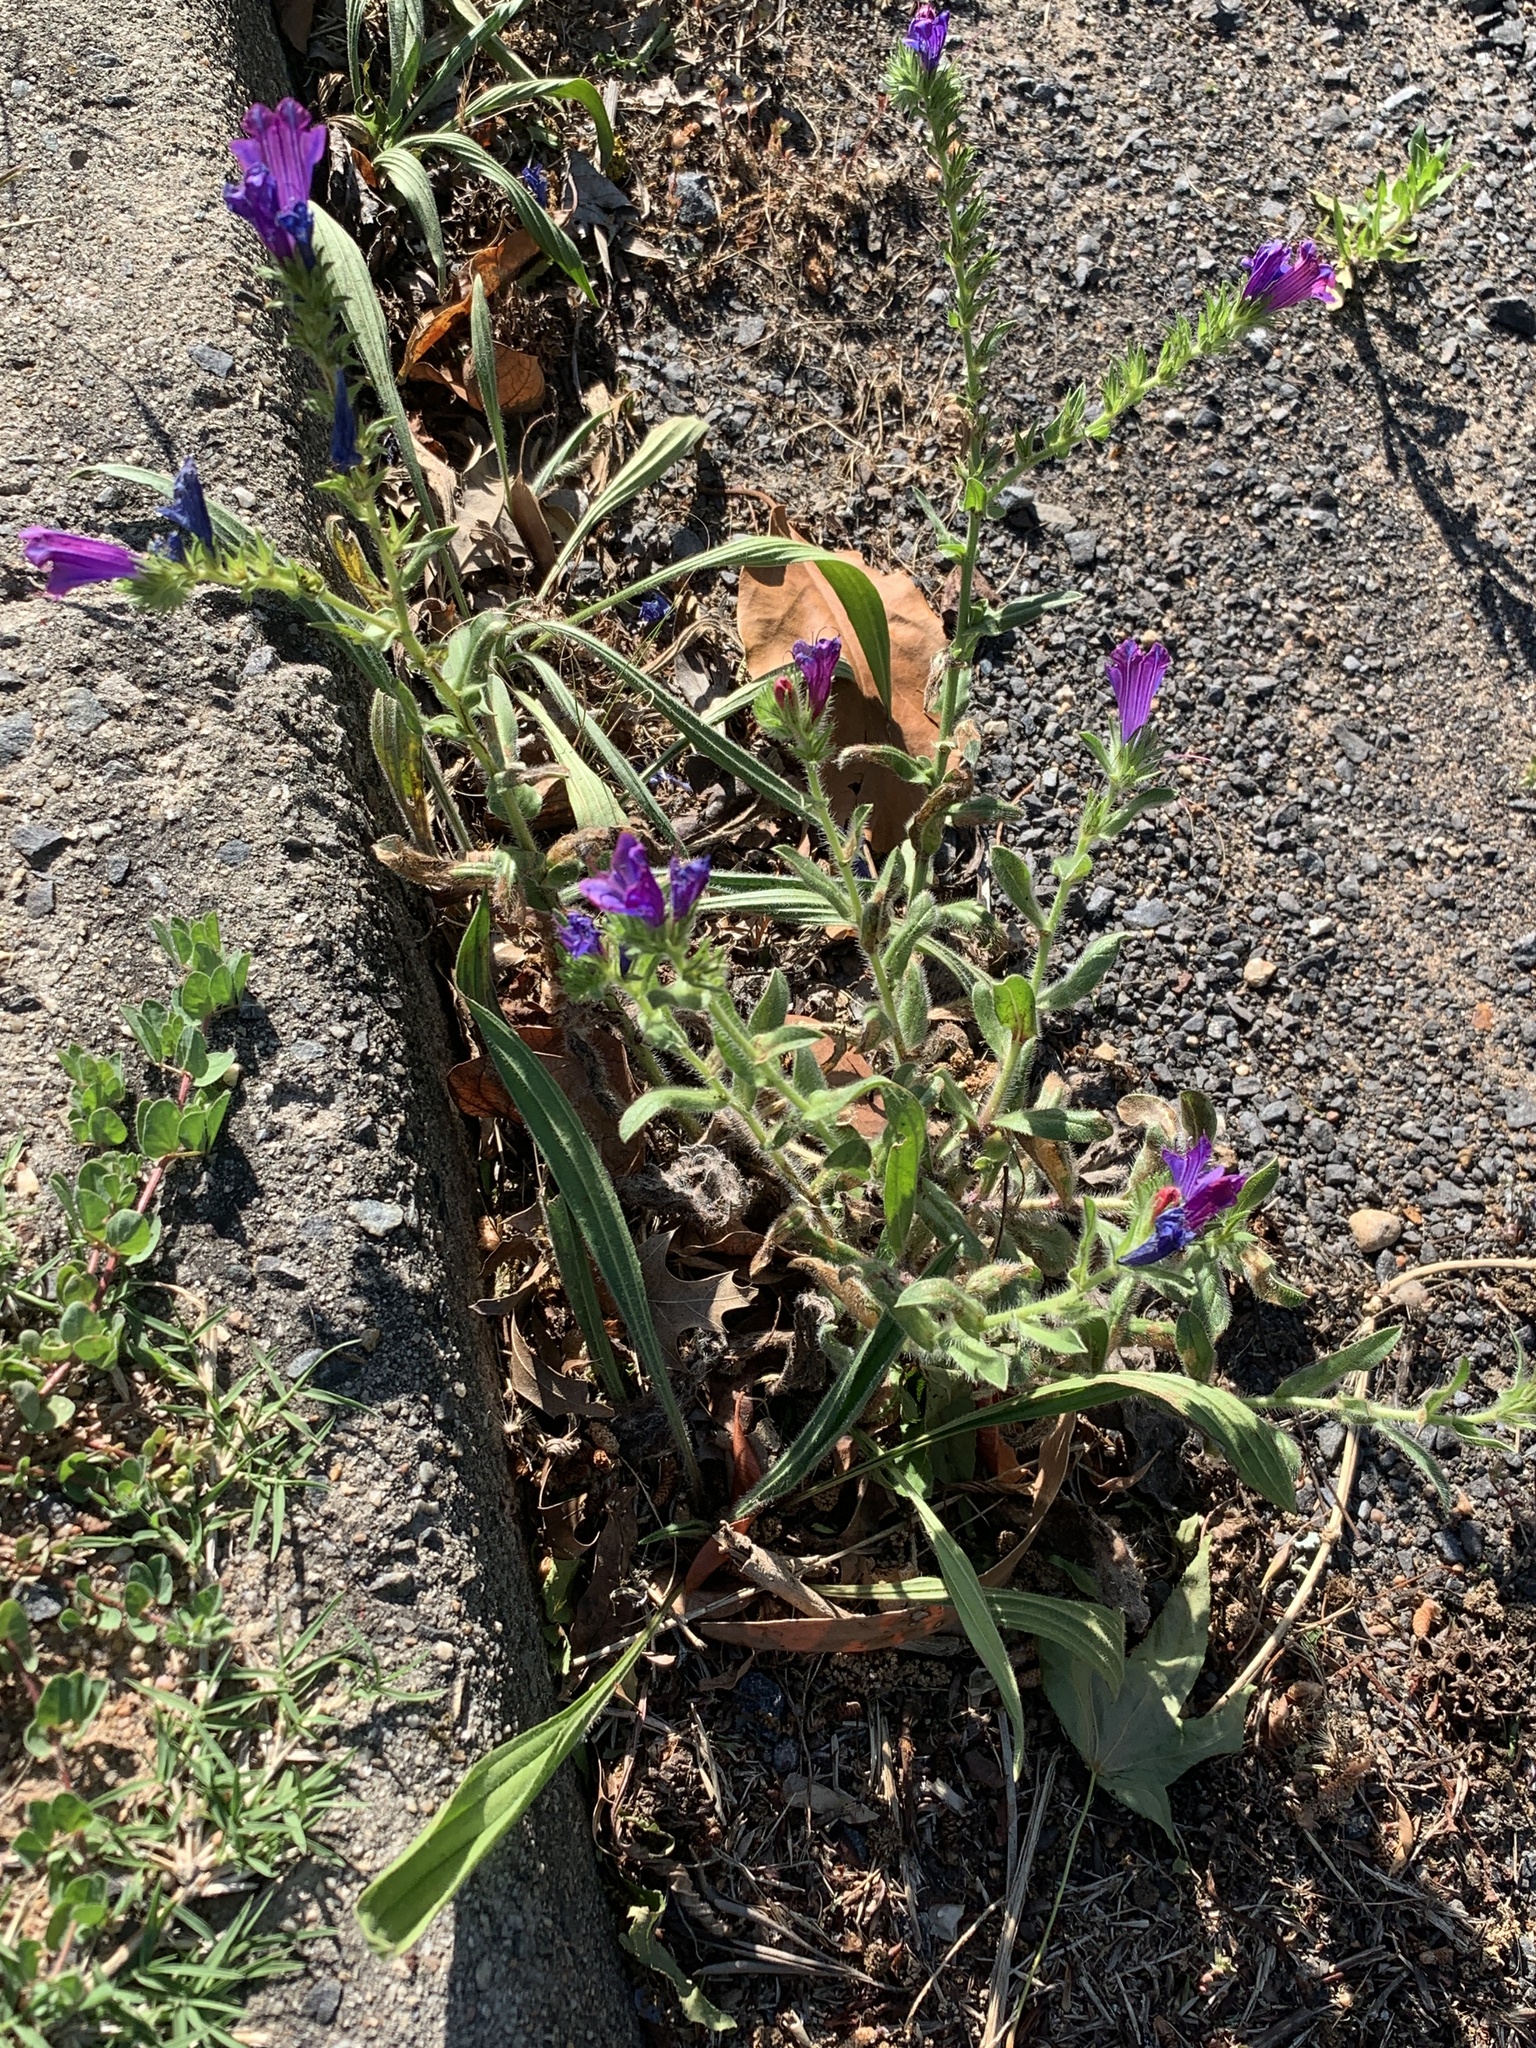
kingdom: Plantae
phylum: Tracheophyta
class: Magnoliopsida
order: Boraginales
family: Boraginaceae
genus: Echium
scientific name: Echium plantagineum
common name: Purple viper's-bugloss
